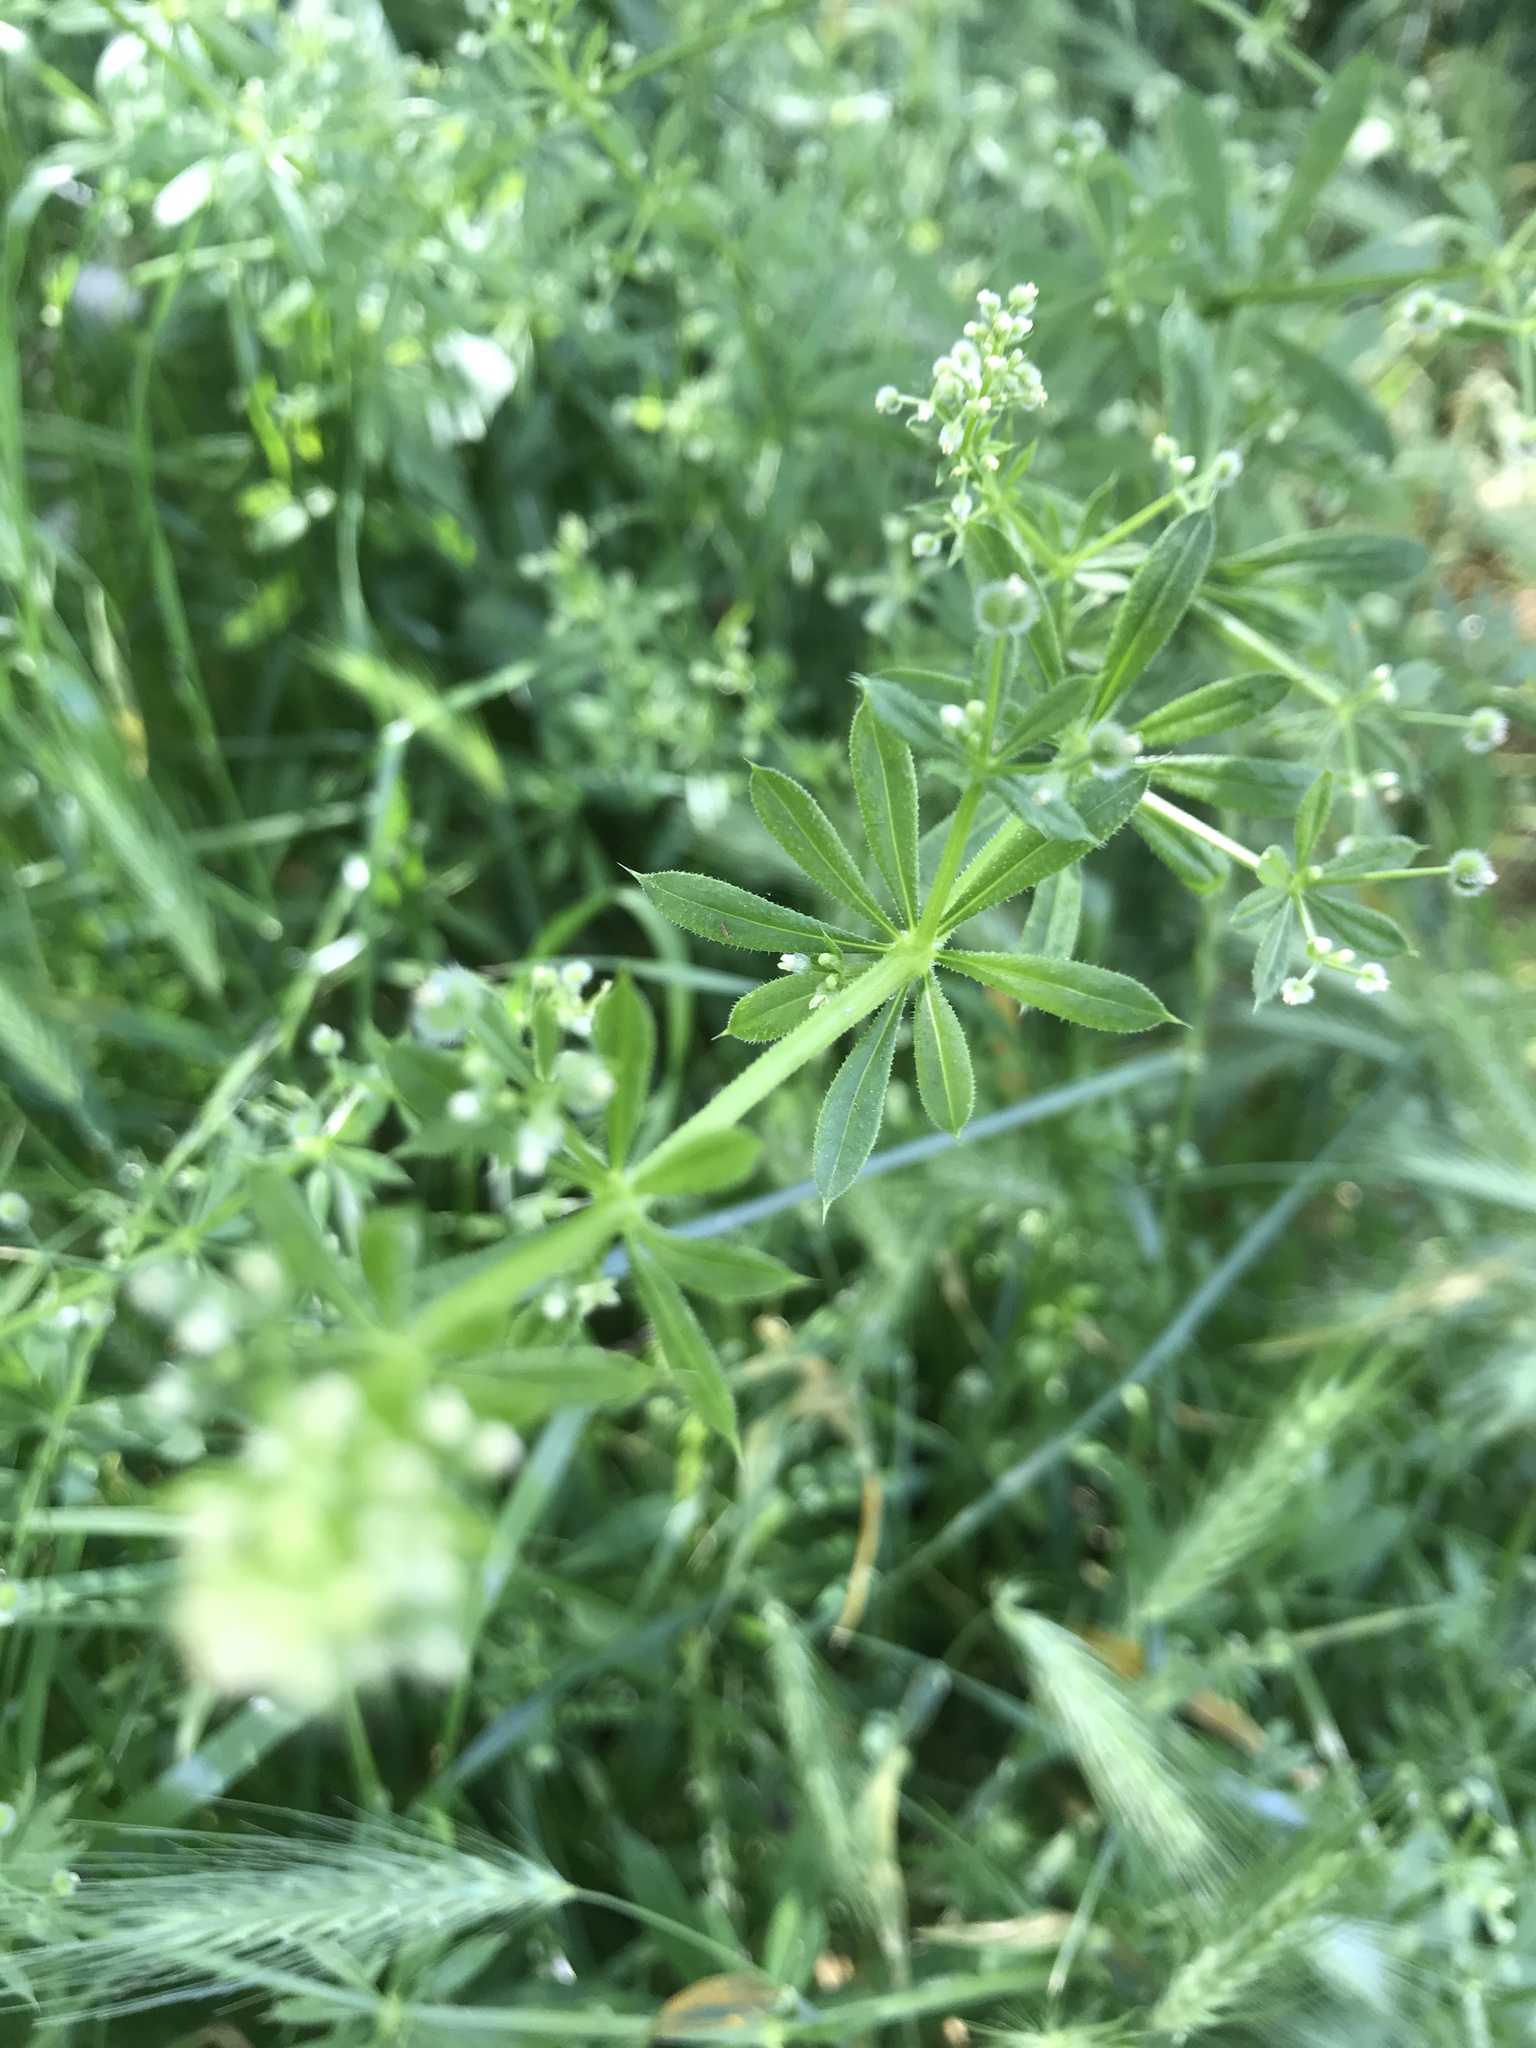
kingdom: Plantae
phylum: Tracheophyta
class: Magnoliopsida
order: Gentianales
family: Rubiaceae
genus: Galium
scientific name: Galium aparine
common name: Cleavers
